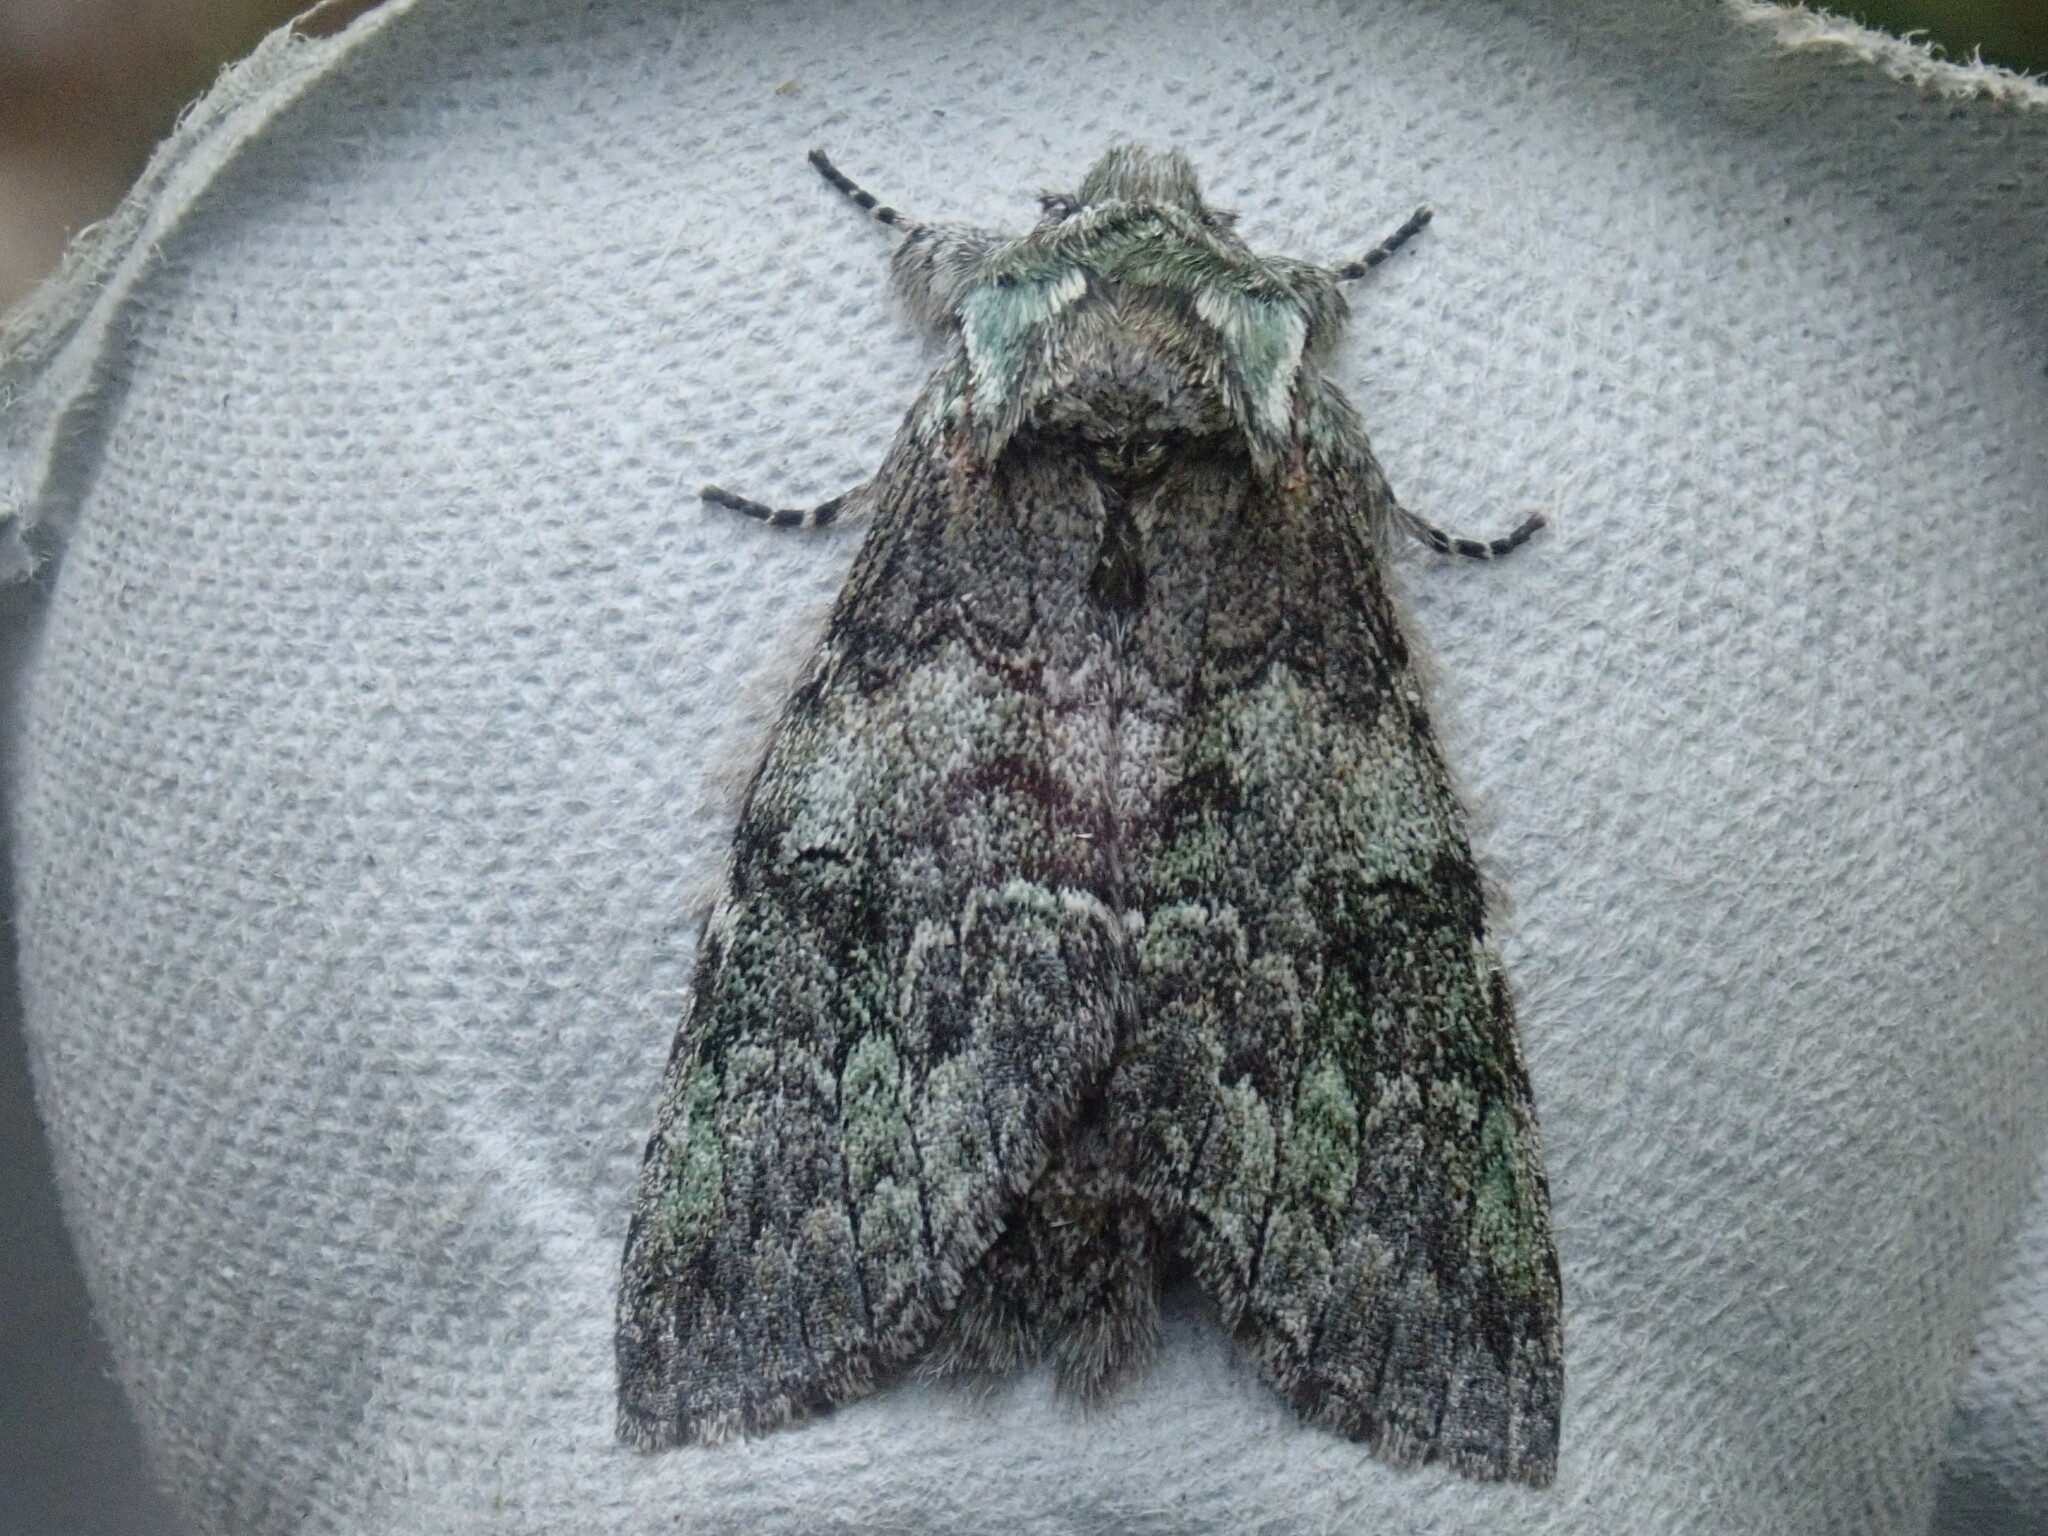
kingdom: Animalia
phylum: Arthropoda
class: Insecta
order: Lepidoptera
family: Notodontidae
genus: Macrurocampa
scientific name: Macrurocampa marthesia
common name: Mottled prominent
